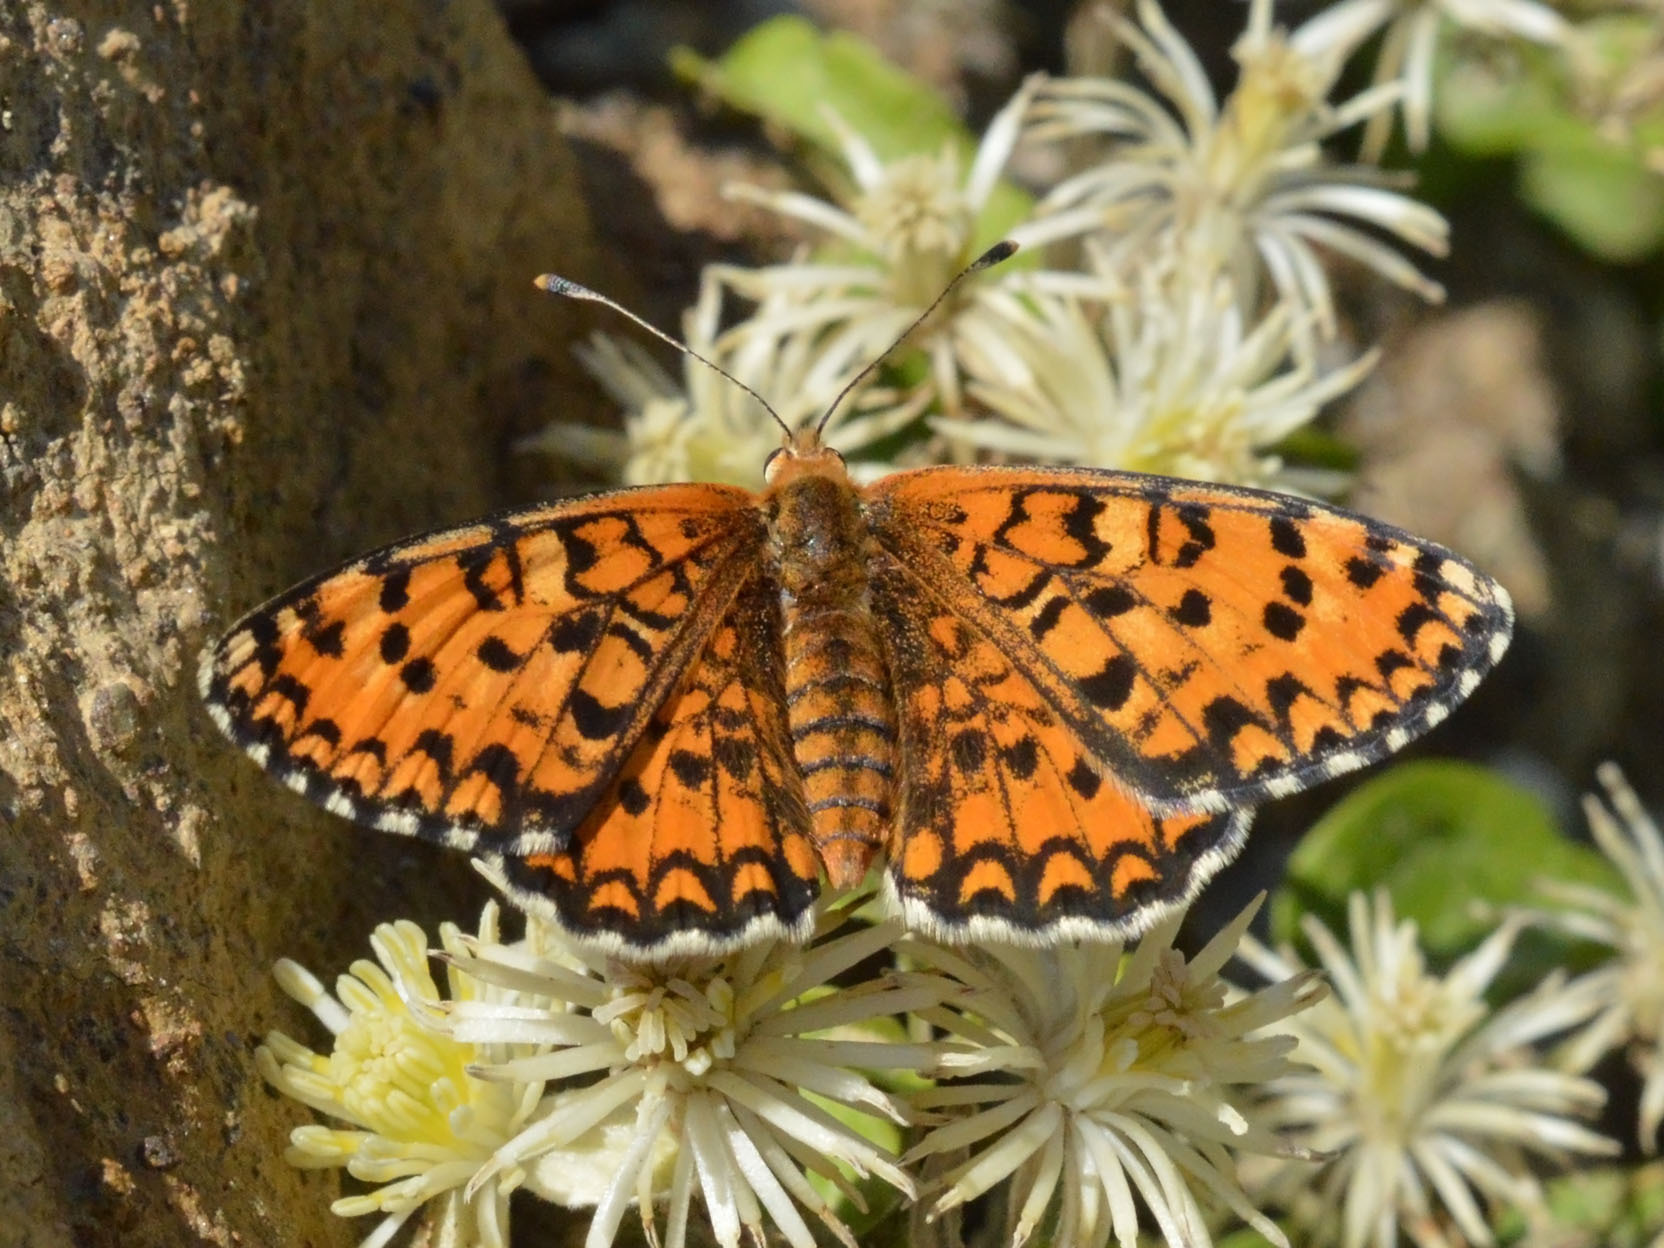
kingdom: Animalia
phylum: Arthropoda
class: Insecta
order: Lepidoptera
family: Nymphalidae
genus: Melitaea
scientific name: Melitaea trivia
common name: Lesser spotted fritillary
